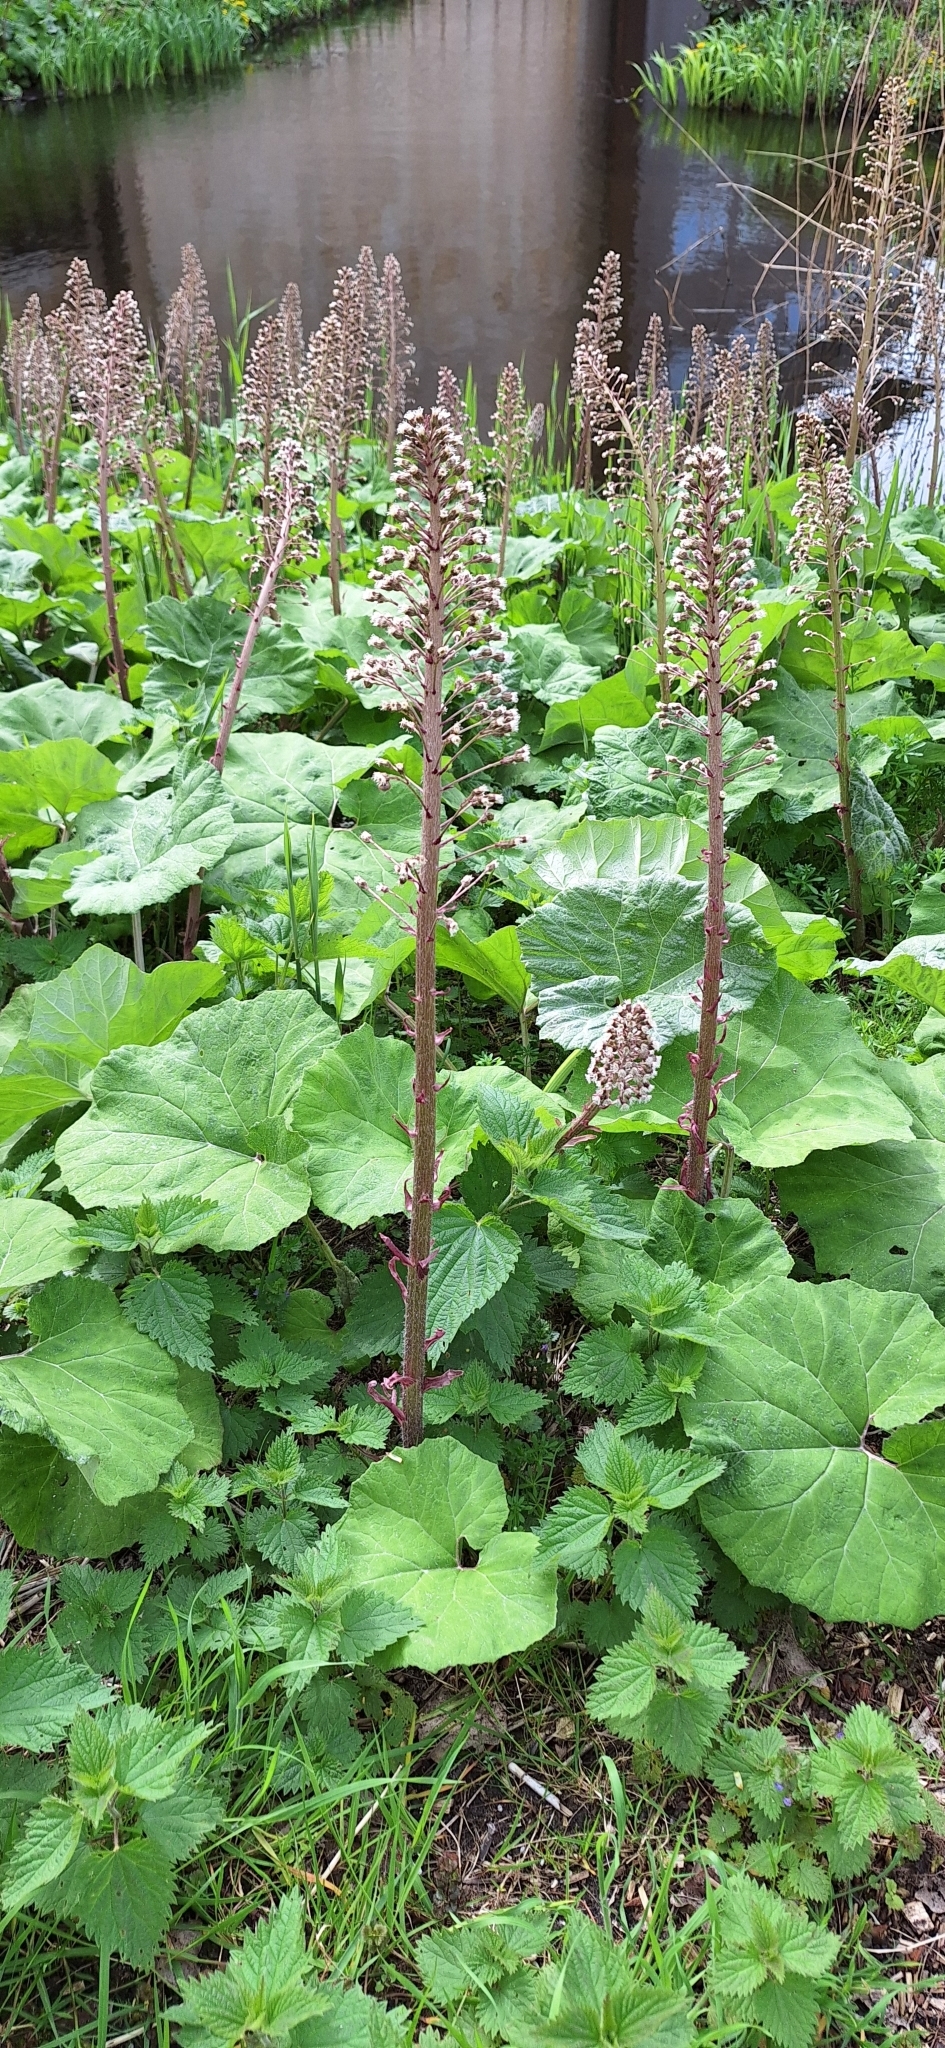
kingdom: Plantae
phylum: Tracheophyta
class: Magnoliopsida
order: Asterales
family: Asteraceae
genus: Petasites
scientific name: Petasites hybridus
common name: Butterbur
